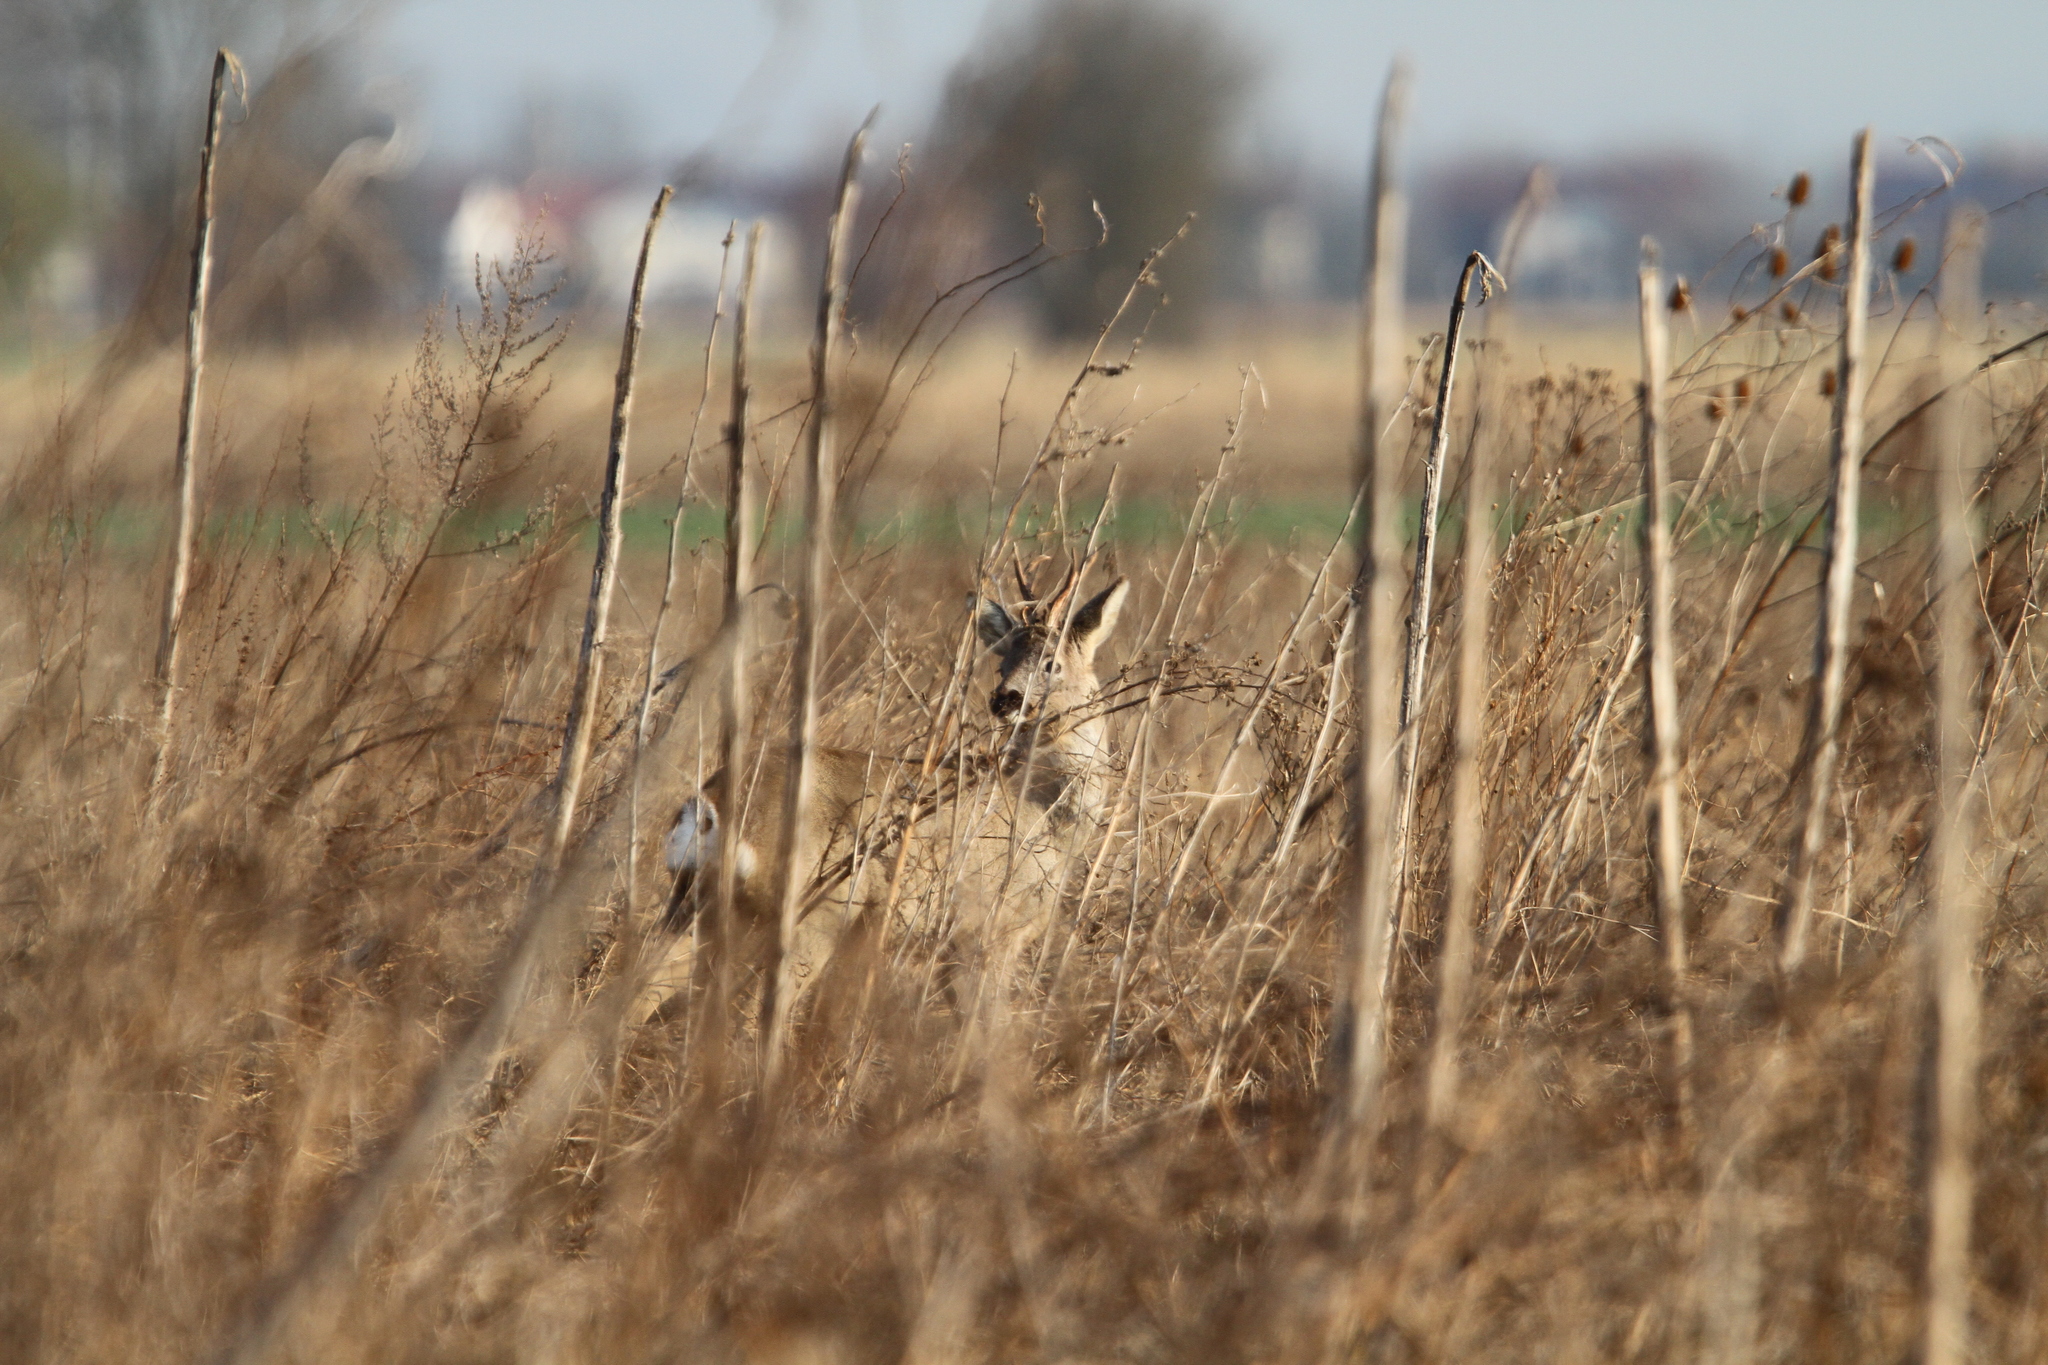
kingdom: Animalia
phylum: Chordata
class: Mammalia
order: Artiodactyla
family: Cervidae
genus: Capreolus
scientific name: Capreolus capreolus
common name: Western roe deer
